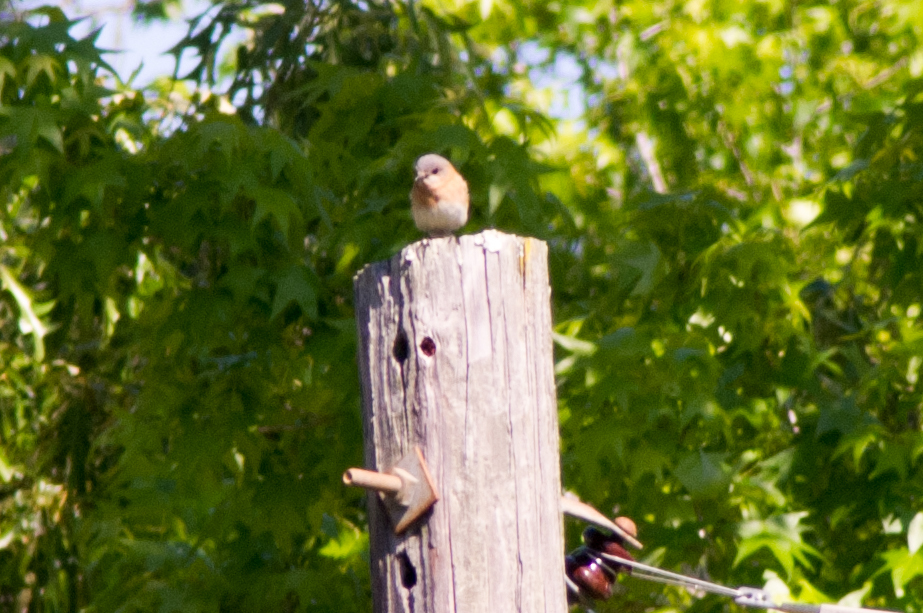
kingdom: Animalia
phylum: Chordata
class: Aves
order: Passeriformes
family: Turdidae
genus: Sialia
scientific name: Sialia sialis
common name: Eastern bluebird
